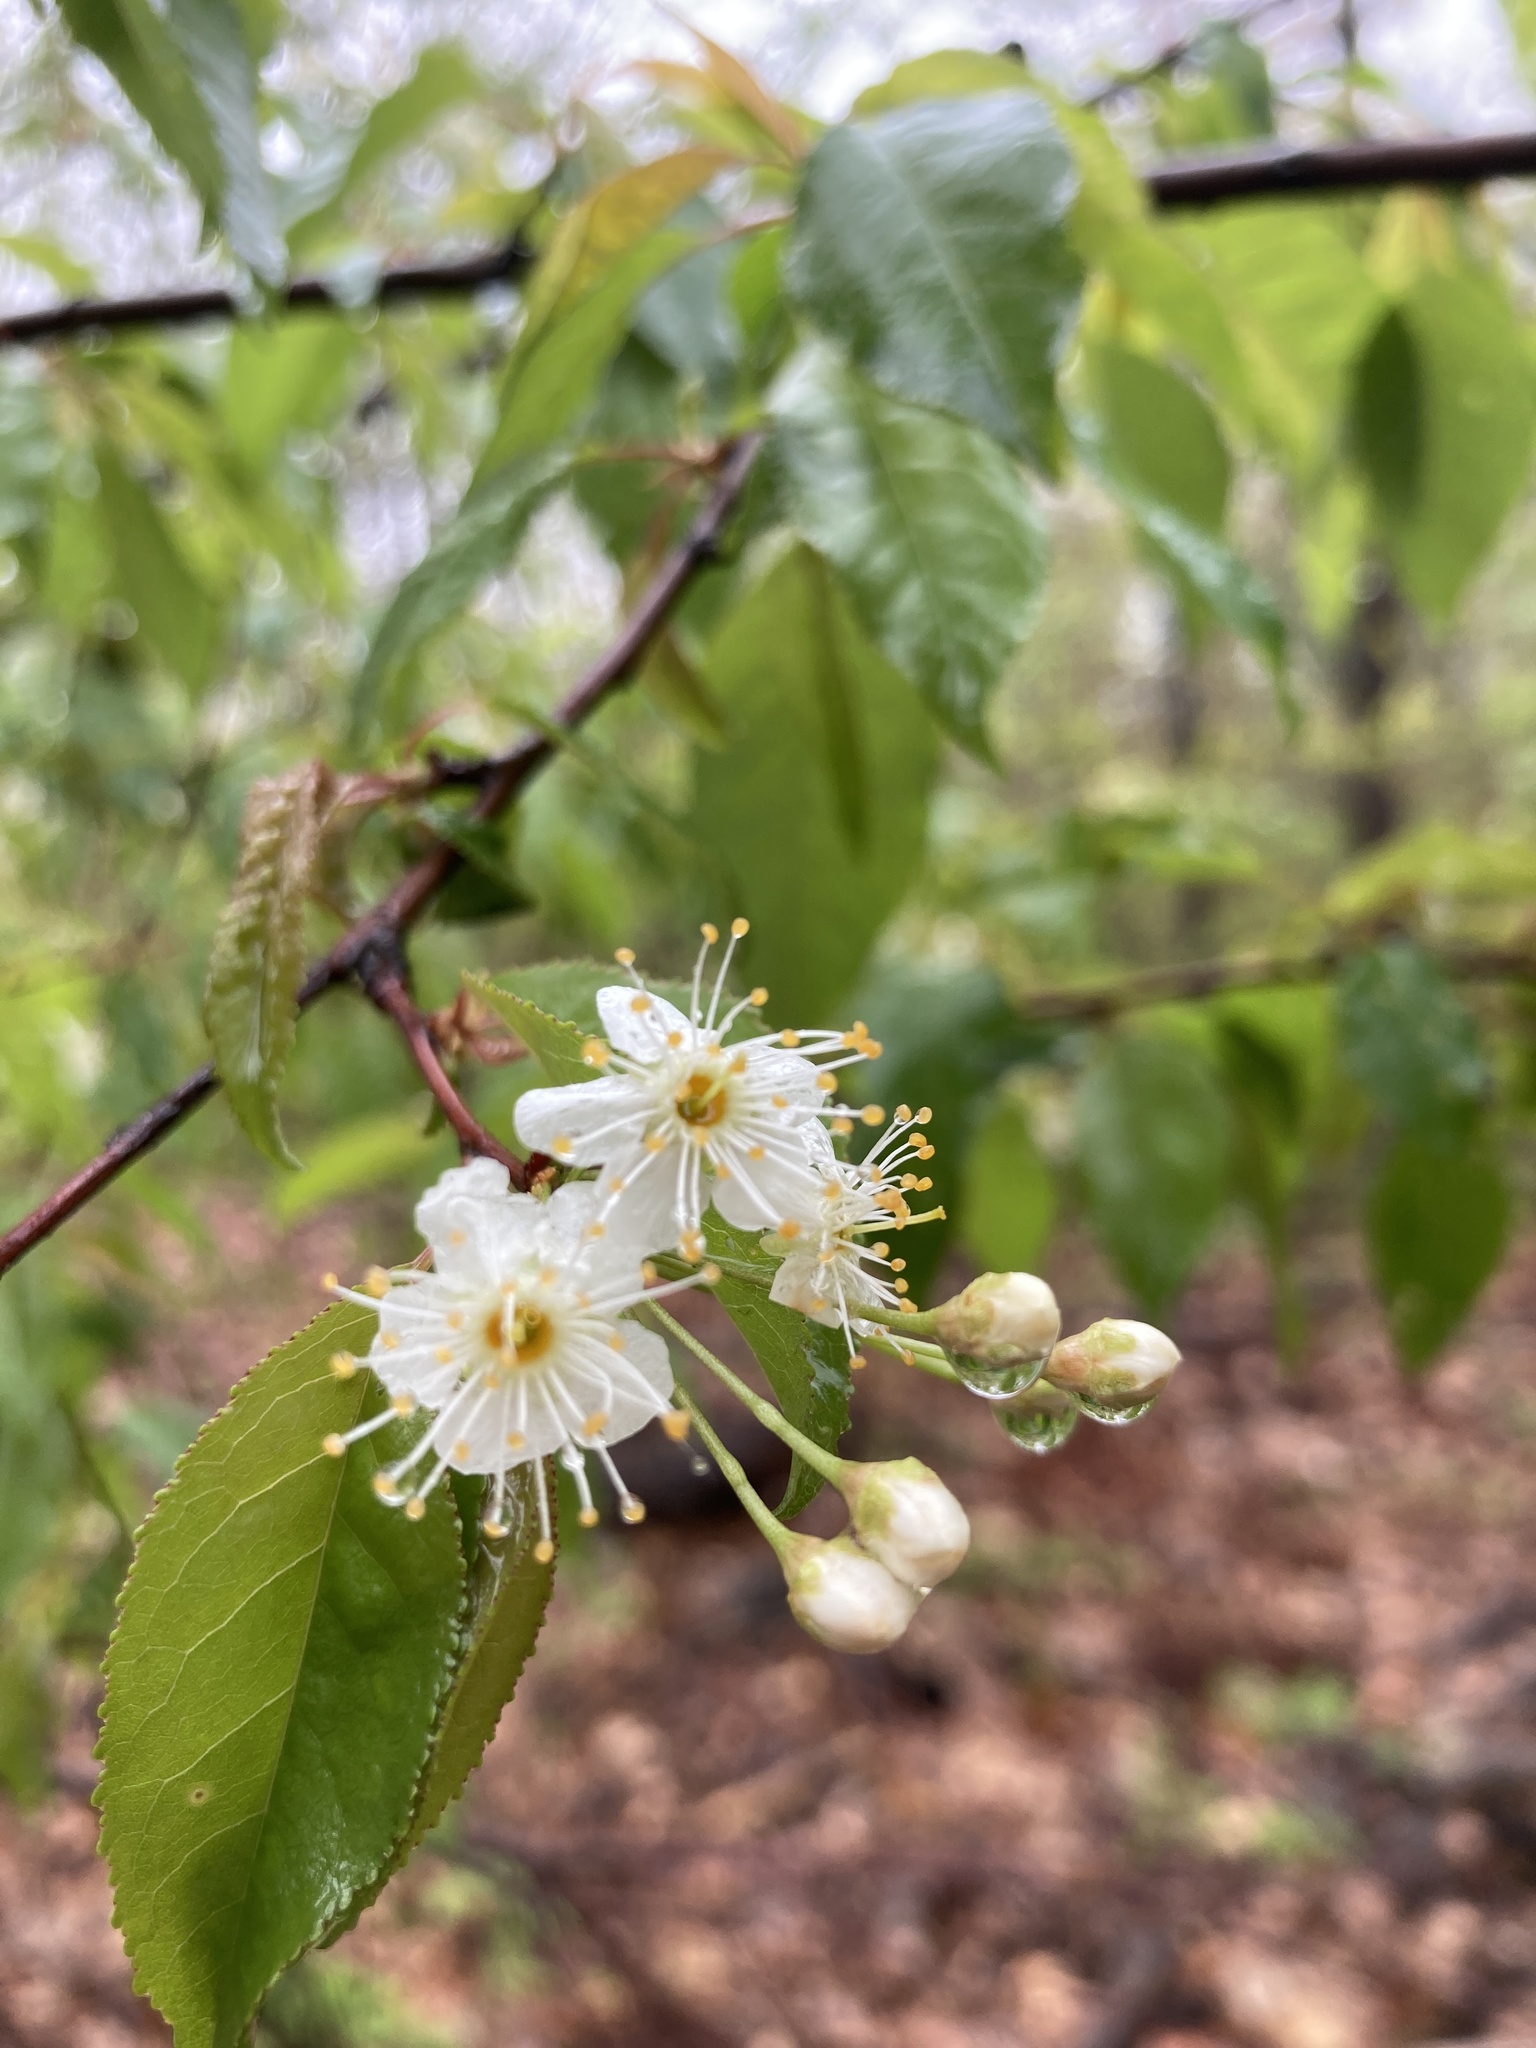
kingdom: Plantae
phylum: Tracheophyta
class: Magnoliopsida
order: Rosales
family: Rosaceae
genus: Prunus
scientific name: Prunus pensylvanica
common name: Pin cherry
